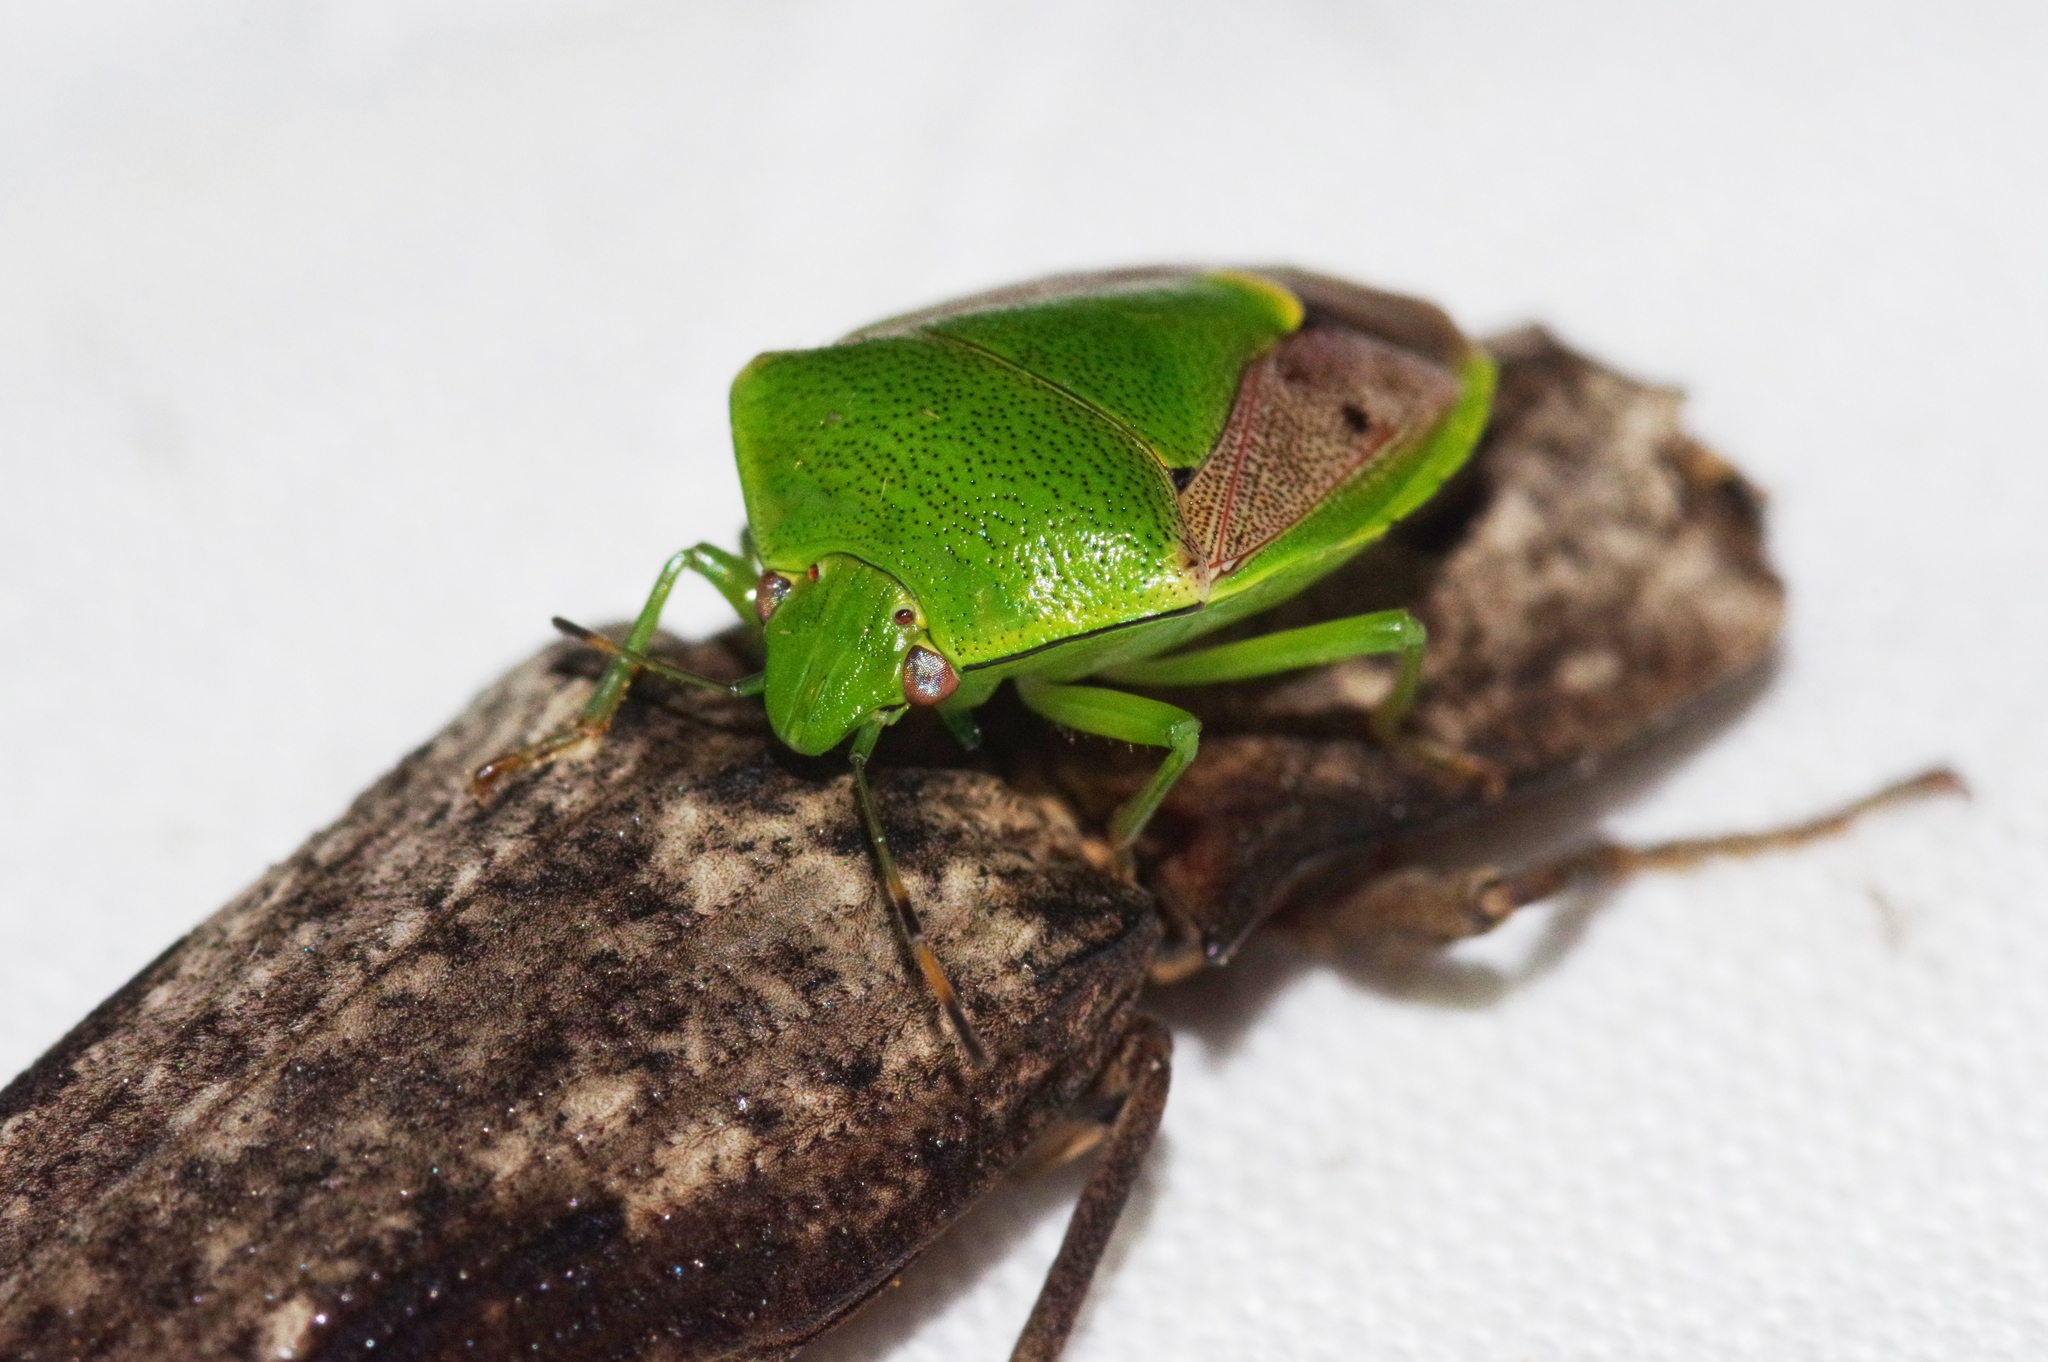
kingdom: Animalia
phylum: Arthropoda
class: Insecta
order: Hemiptera
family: Pentatomidae
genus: Plautia
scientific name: Plautia stali
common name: Stink bug
